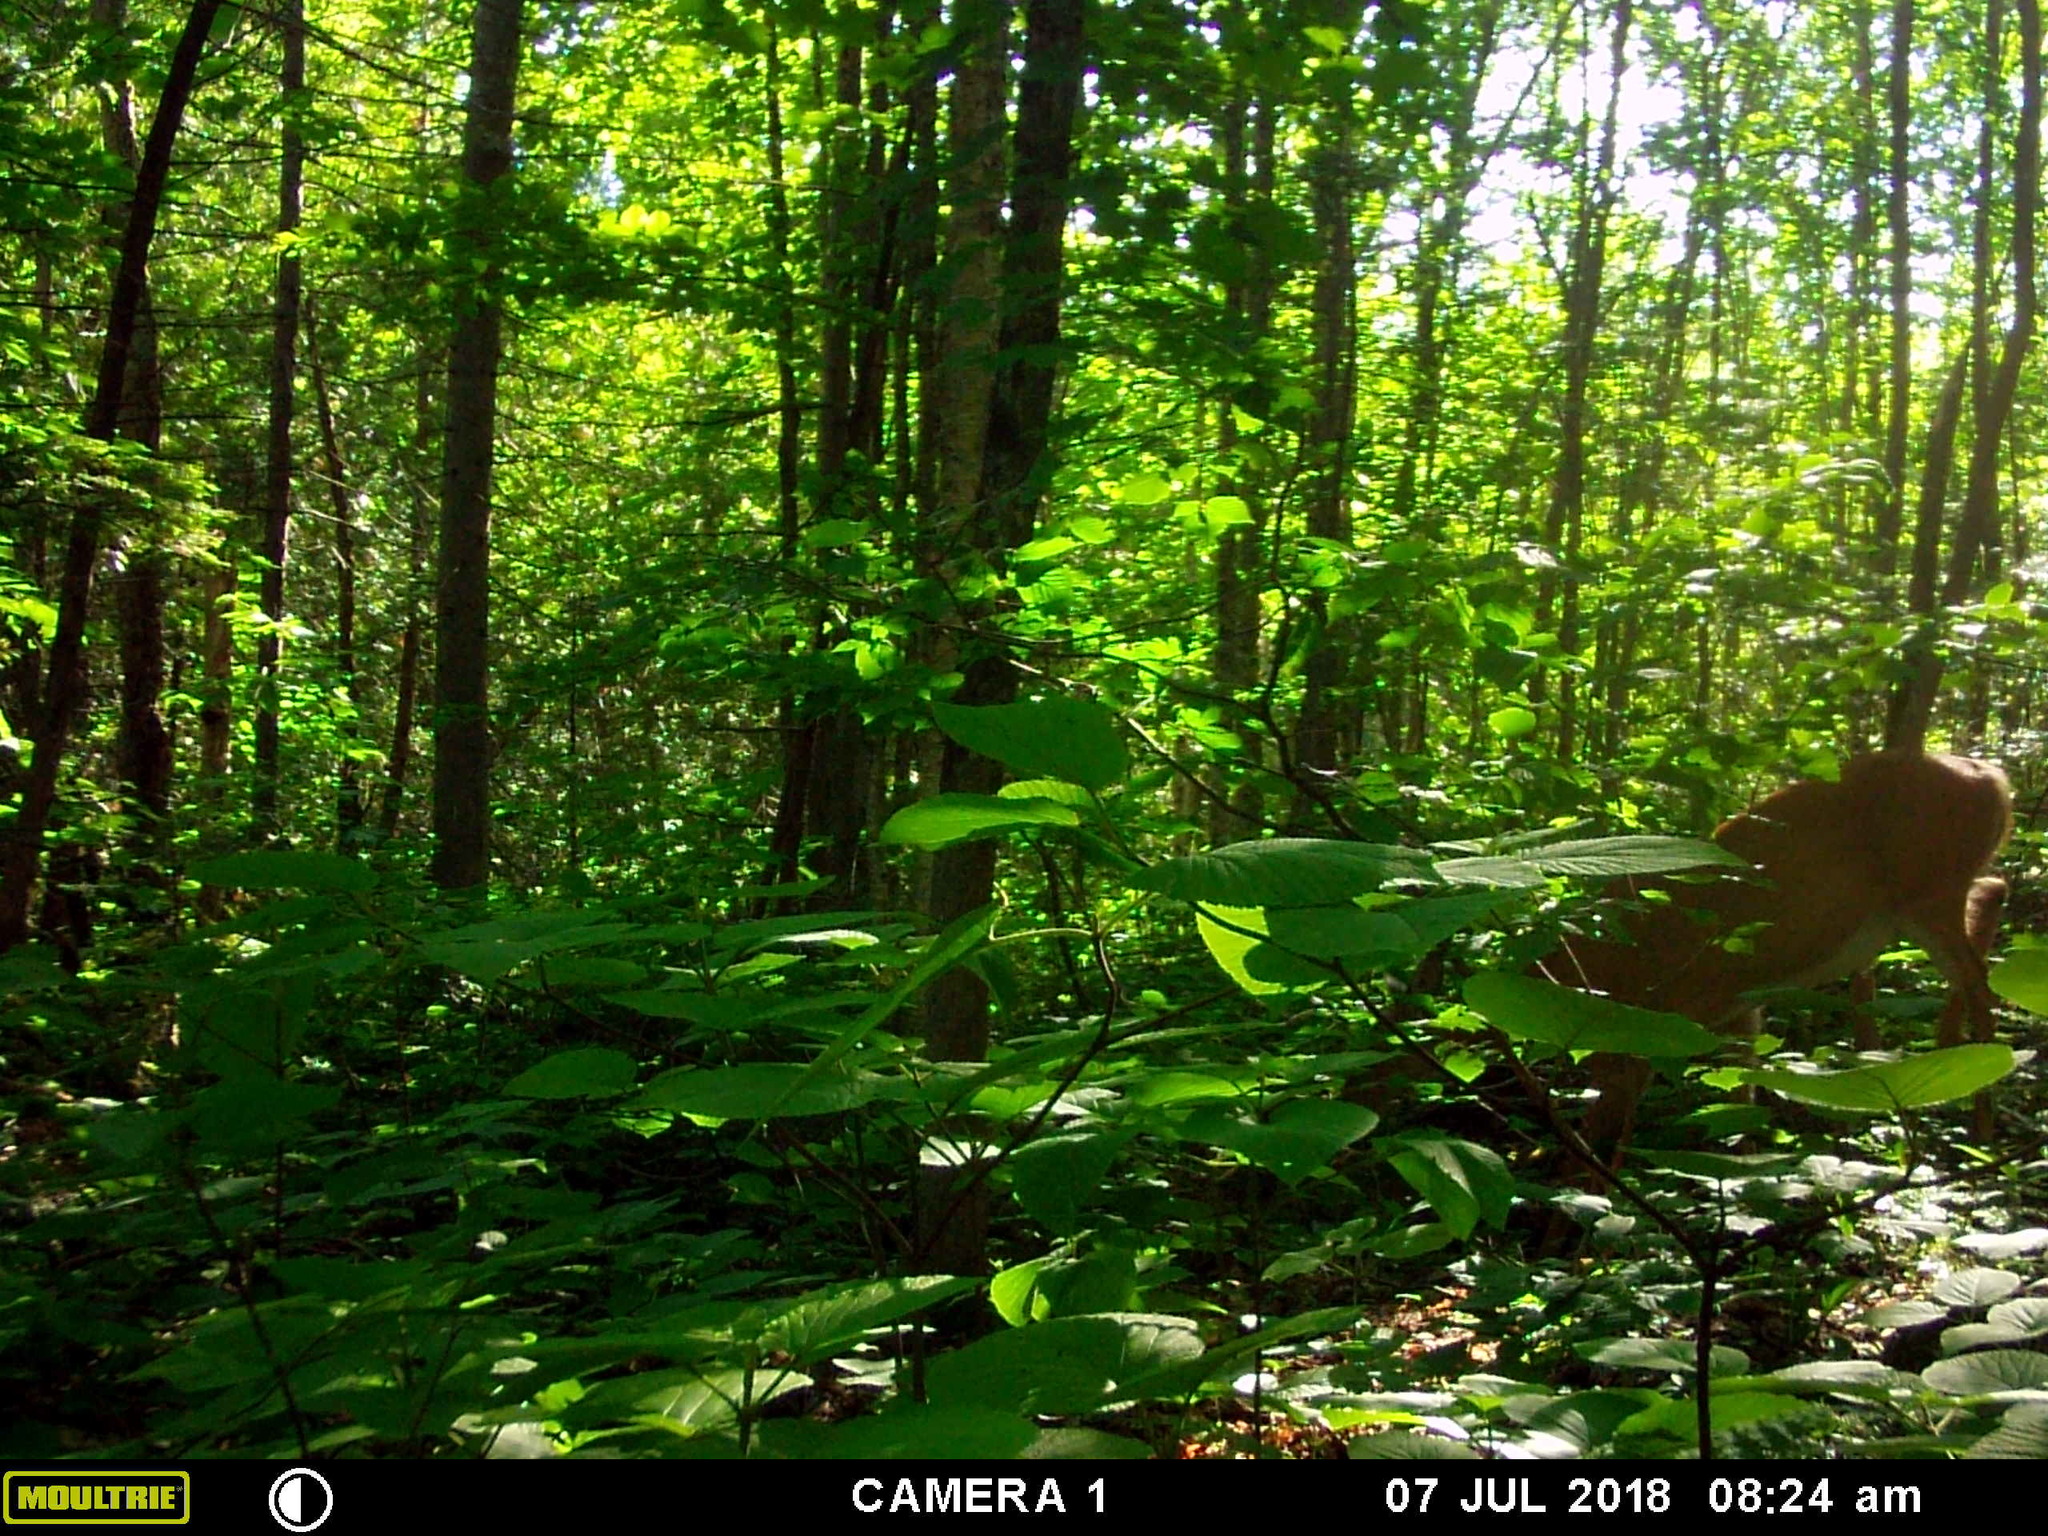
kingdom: Animalia
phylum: Chordata
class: Mammalia
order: Artiodactyla
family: Cervidae
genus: Odocoileus
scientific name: Odocoileus virginianus
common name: White-tailed deer
